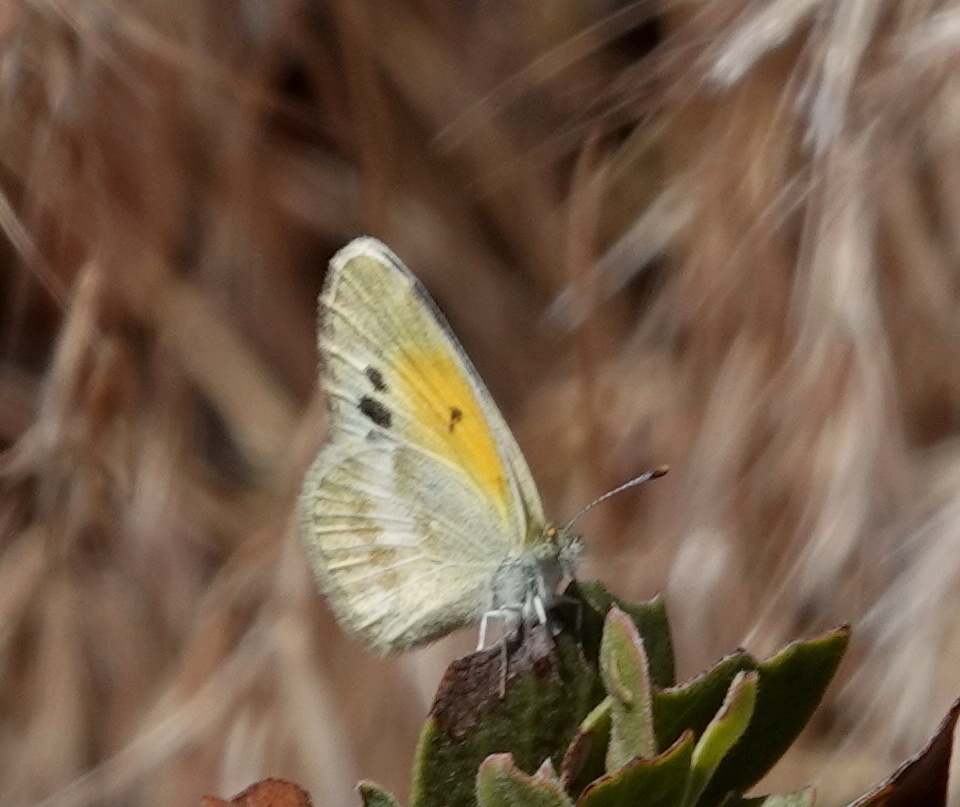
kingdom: Animalia
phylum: Arthropoda
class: Insecta
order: Lepidoptera
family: Pieridae
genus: Nathalis
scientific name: Nathalis iole
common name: Dainty sulphur
